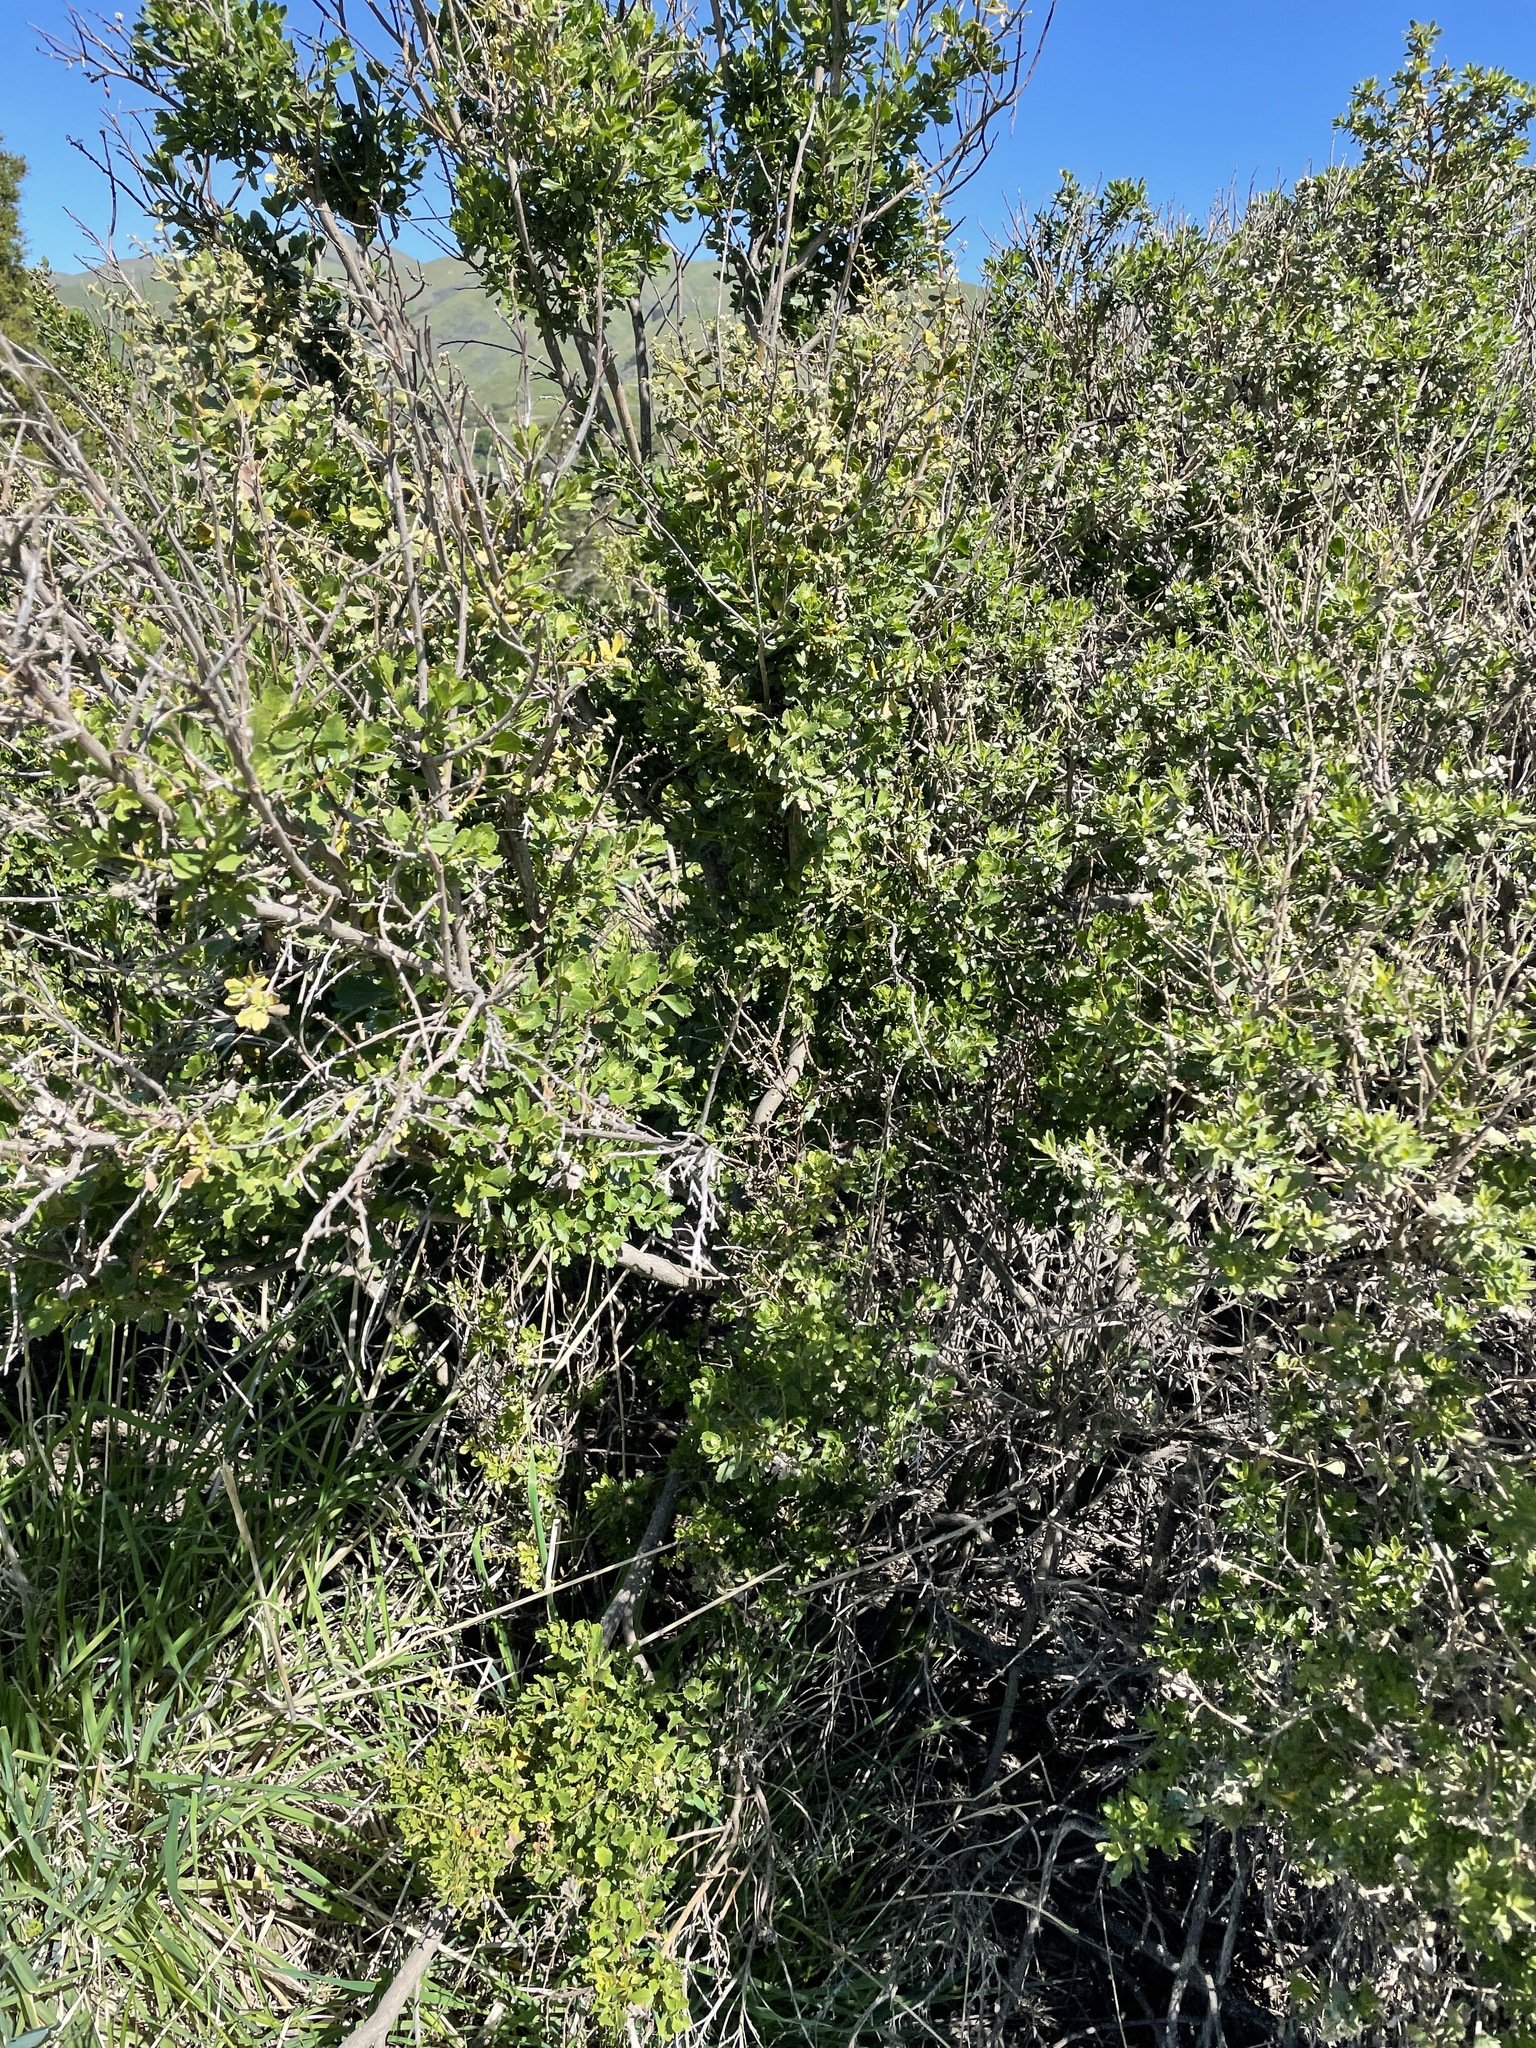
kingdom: Plantae
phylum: Tracheophyta
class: Magnoliopsida
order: Asterales
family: Asteraceae
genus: Baccharis
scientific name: Baccharis pilularis
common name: Coyotebrush
